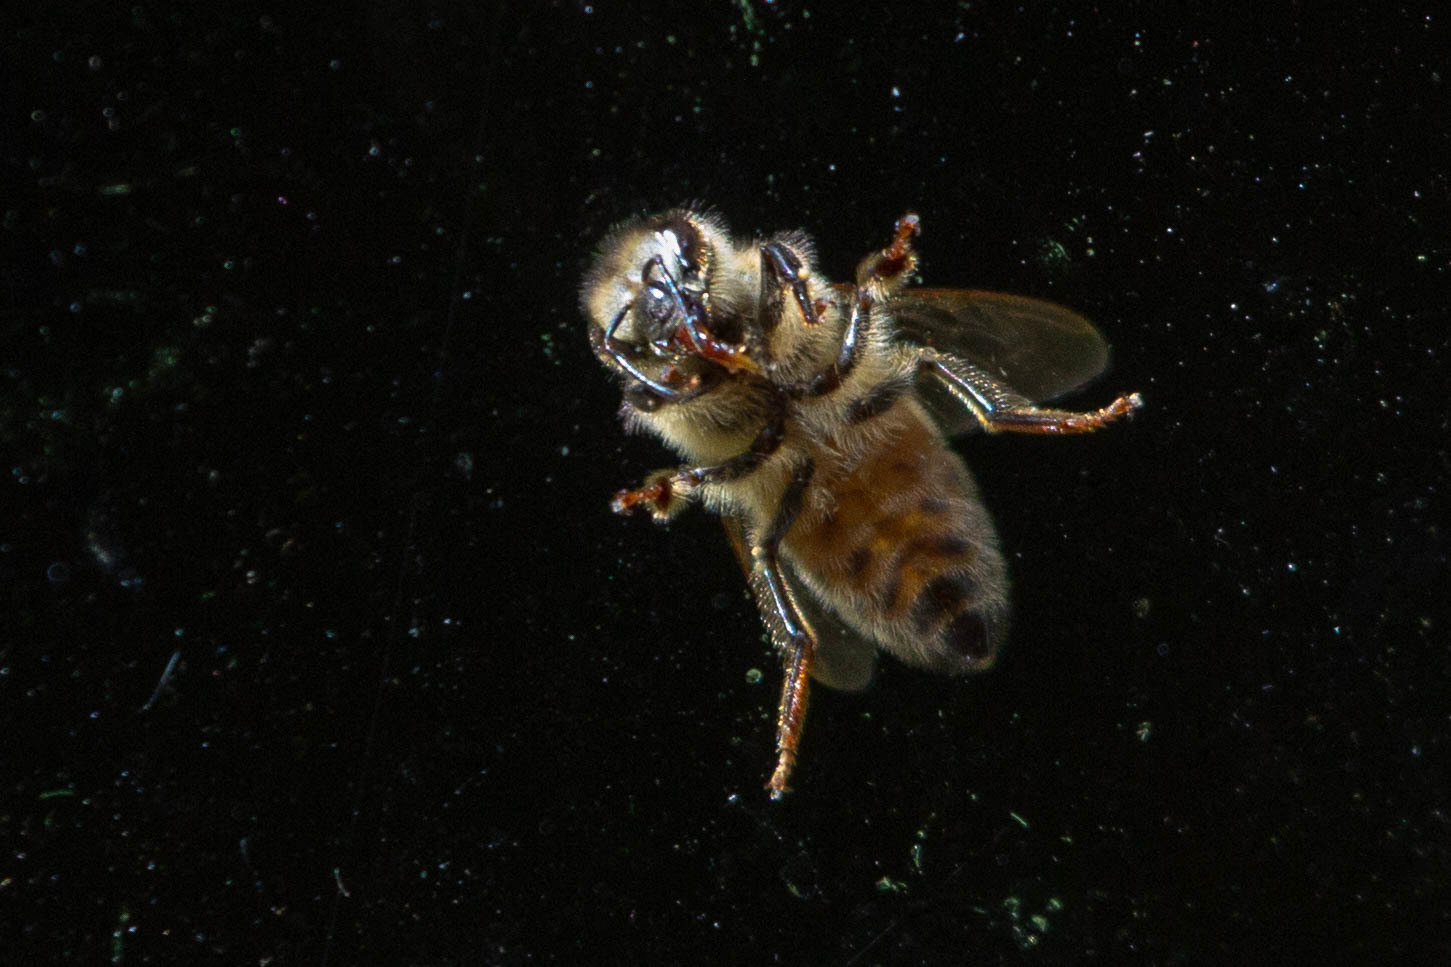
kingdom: Animalia
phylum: Arthropoda
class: Insecta
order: Hymenoptera
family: Apidae
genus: Apis
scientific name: Apis mellifera
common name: Honey bee
